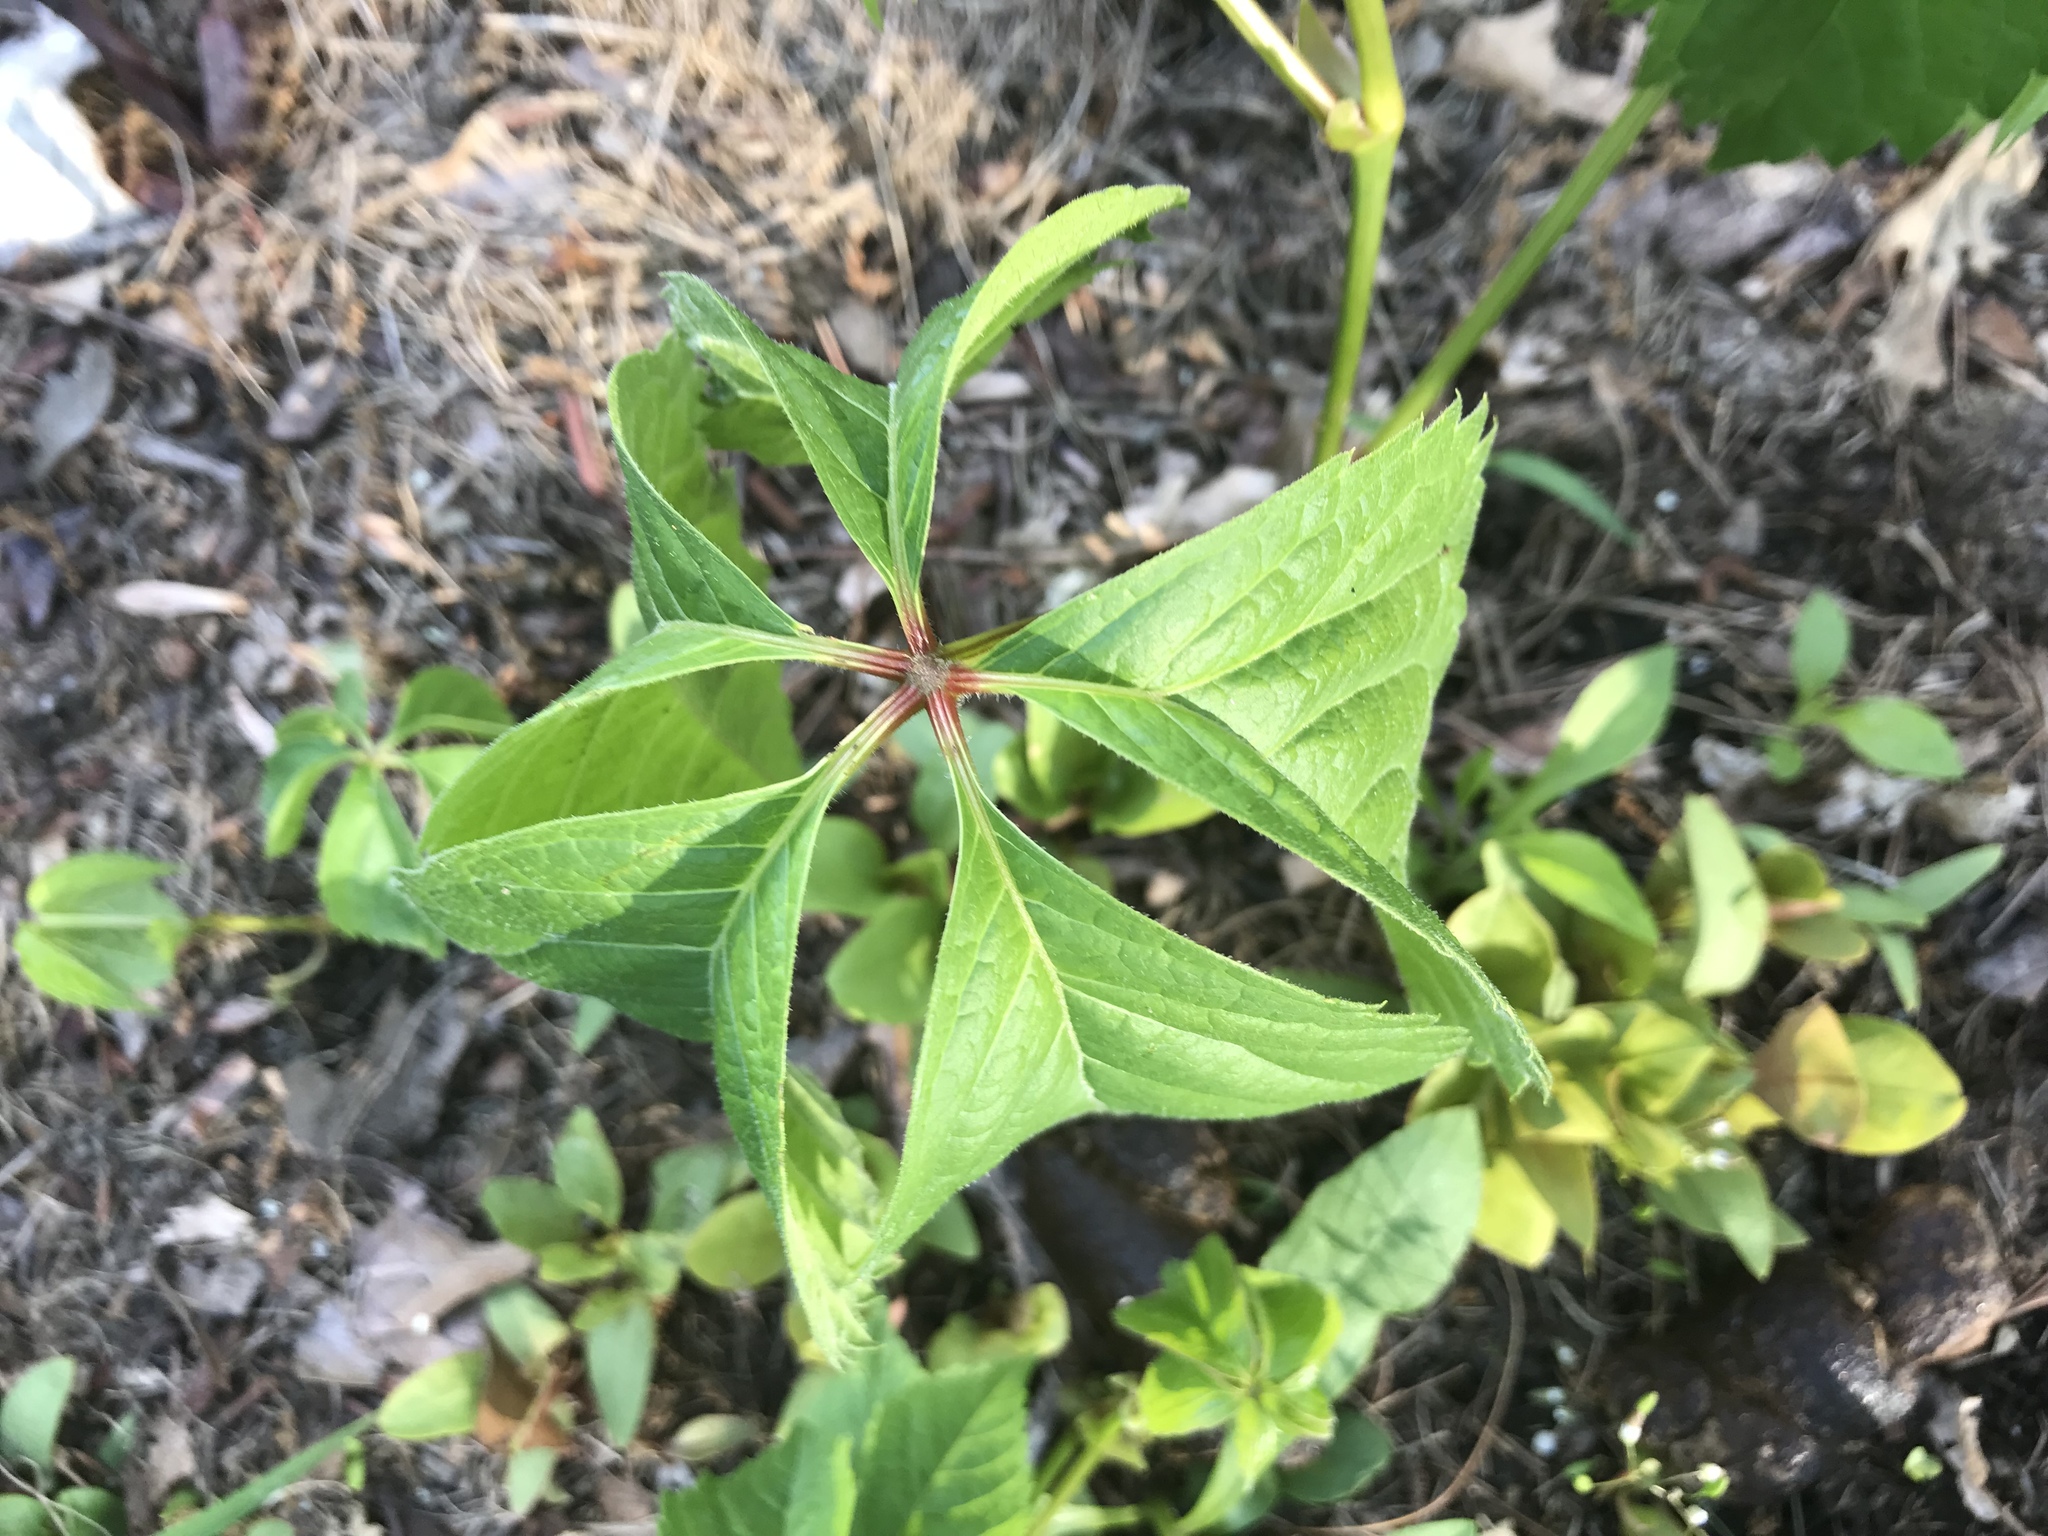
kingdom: Plantae
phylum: Tracheophyta
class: Magnoliopsida
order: Vitales
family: Vitaceae
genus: Parthenocissus
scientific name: Parthenocissus quinquefolia
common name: Virginia-creeper
